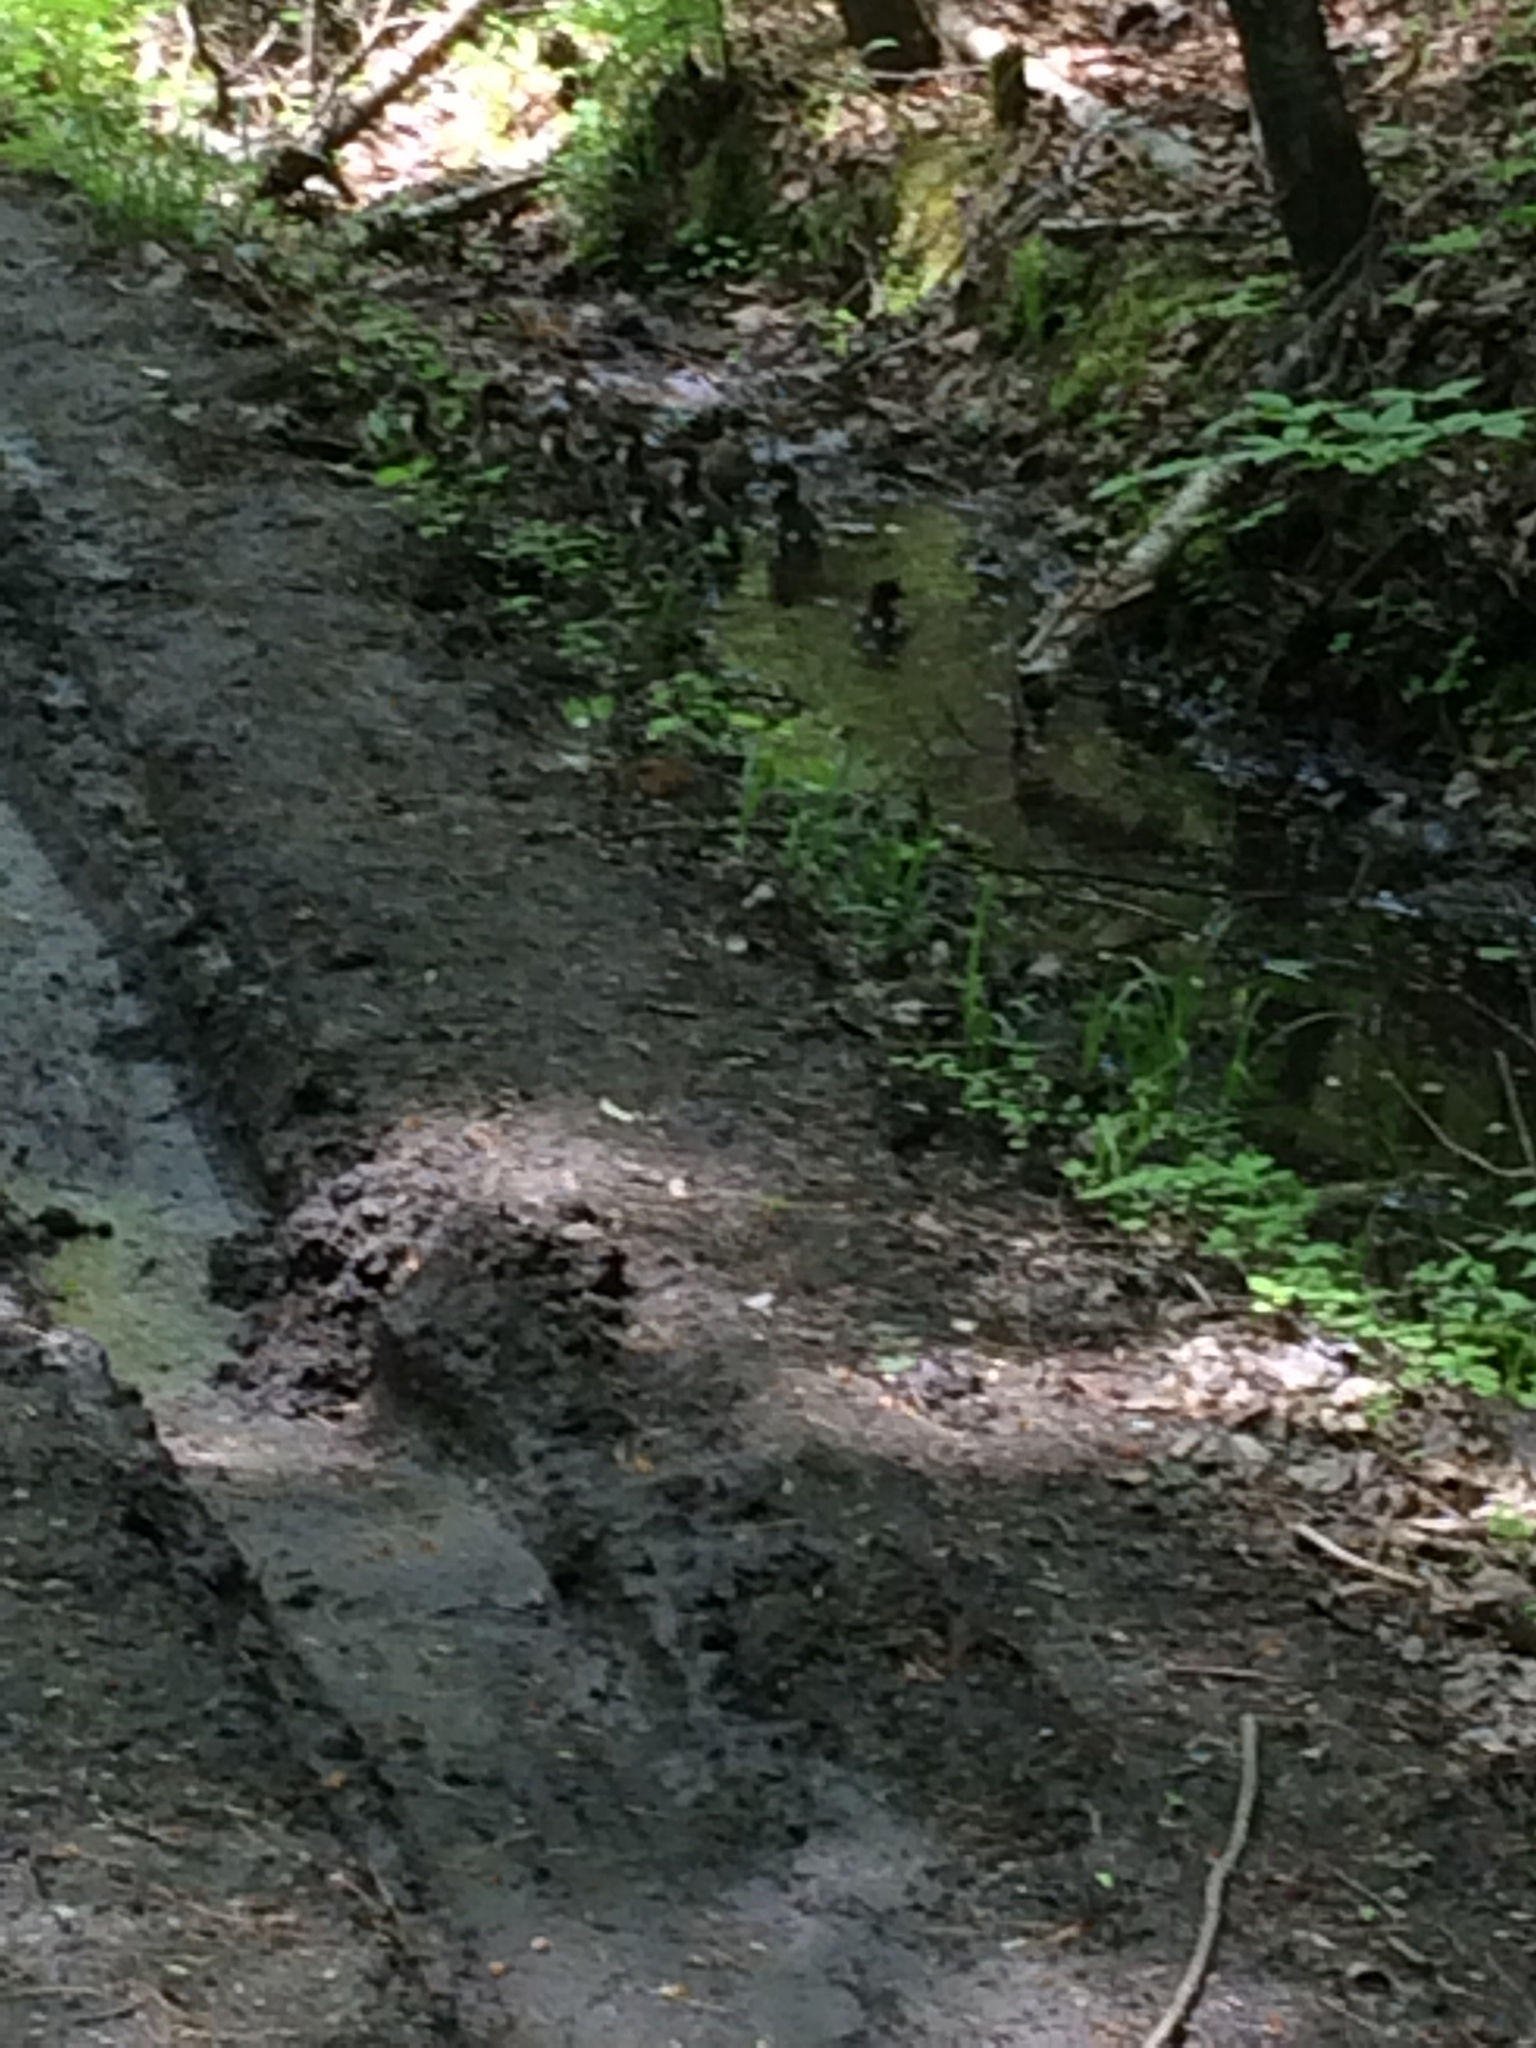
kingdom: Animalia
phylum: Chordata
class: Aves
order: Anseriformes
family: Anatidae
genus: Mergus
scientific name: Mergus merganser
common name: Common merganser
